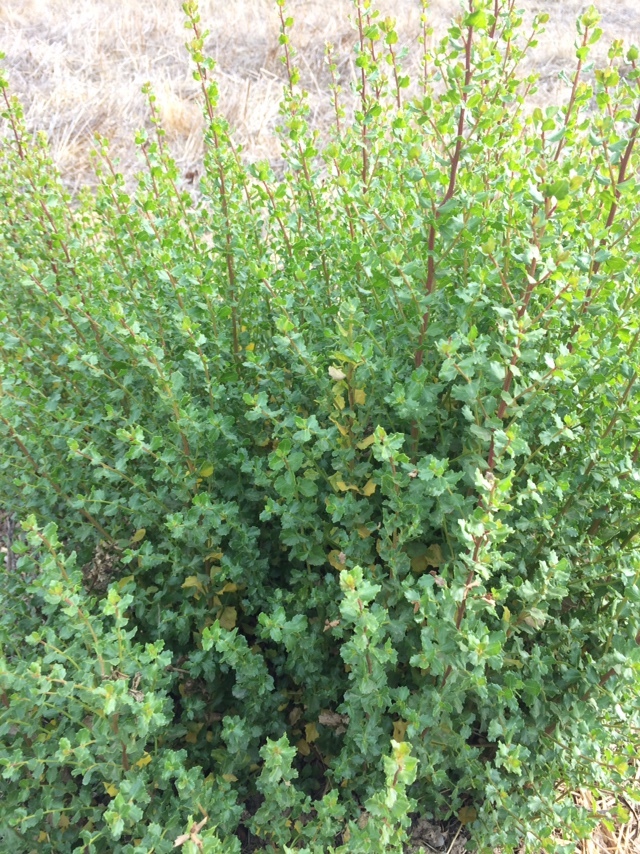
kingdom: Plantae
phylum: Tracheophyta
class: Magnoliopsida
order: Asterales
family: Asteraceae
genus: Baccharis
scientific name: Baccharis pilularis
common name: Coyotebrush
